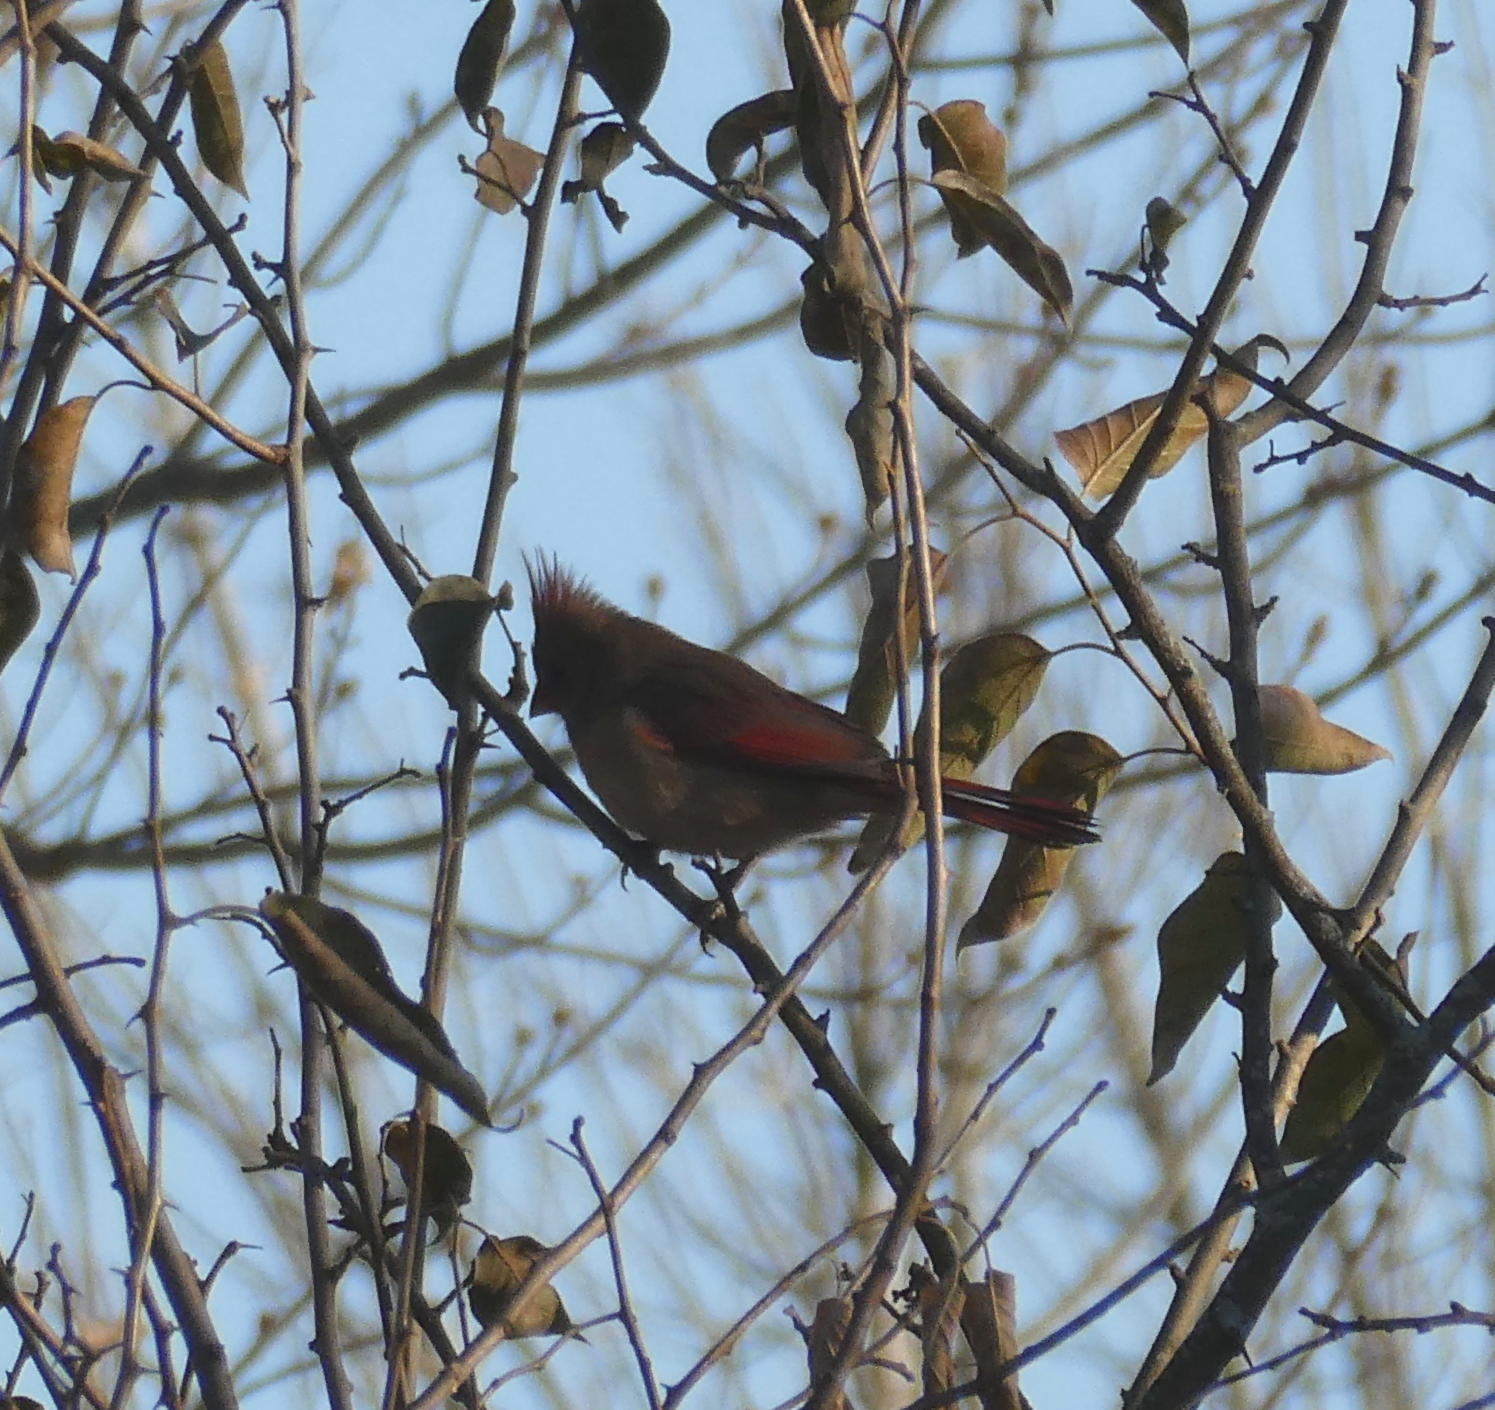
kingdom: Animalia
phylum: Chordata
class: Aves
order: Passeriformes
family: Cardinalidae
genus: Cardinalis
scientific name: Cardinalis cardinalis
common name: Northern cardinal
